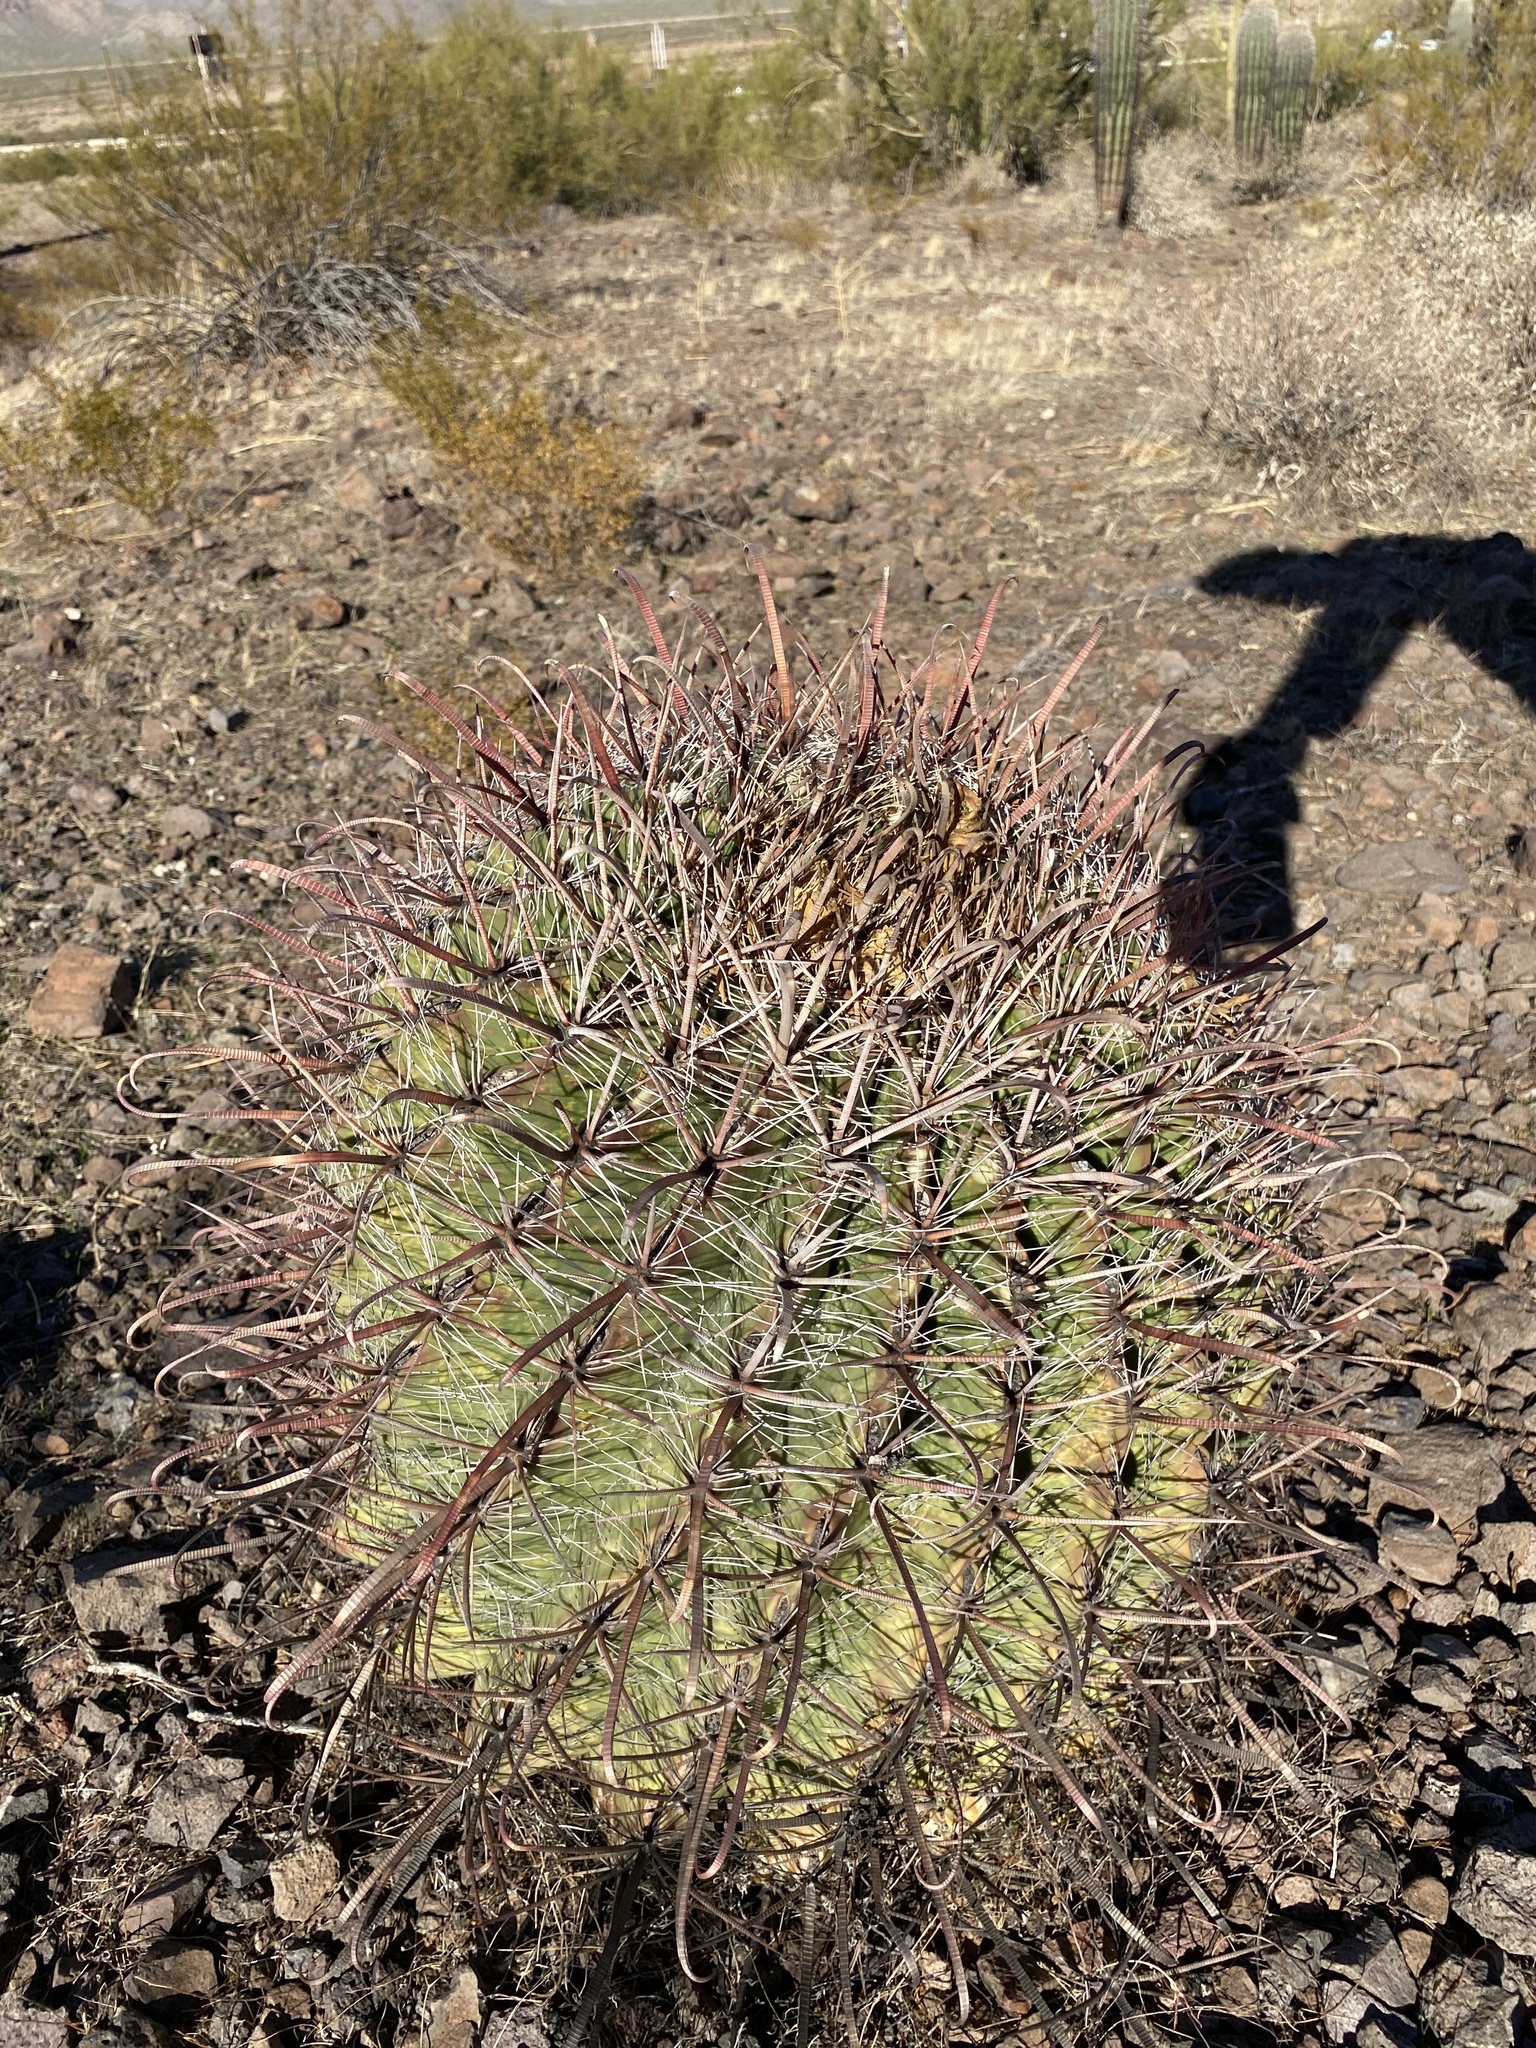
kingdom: Plantae
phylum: Tracheophyta
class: Magnoliopsida
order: Caryophyllales
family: Cactaceae
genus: Ferocactus
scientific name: Ferocactus wislizeni
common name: Candy barrel cactus
